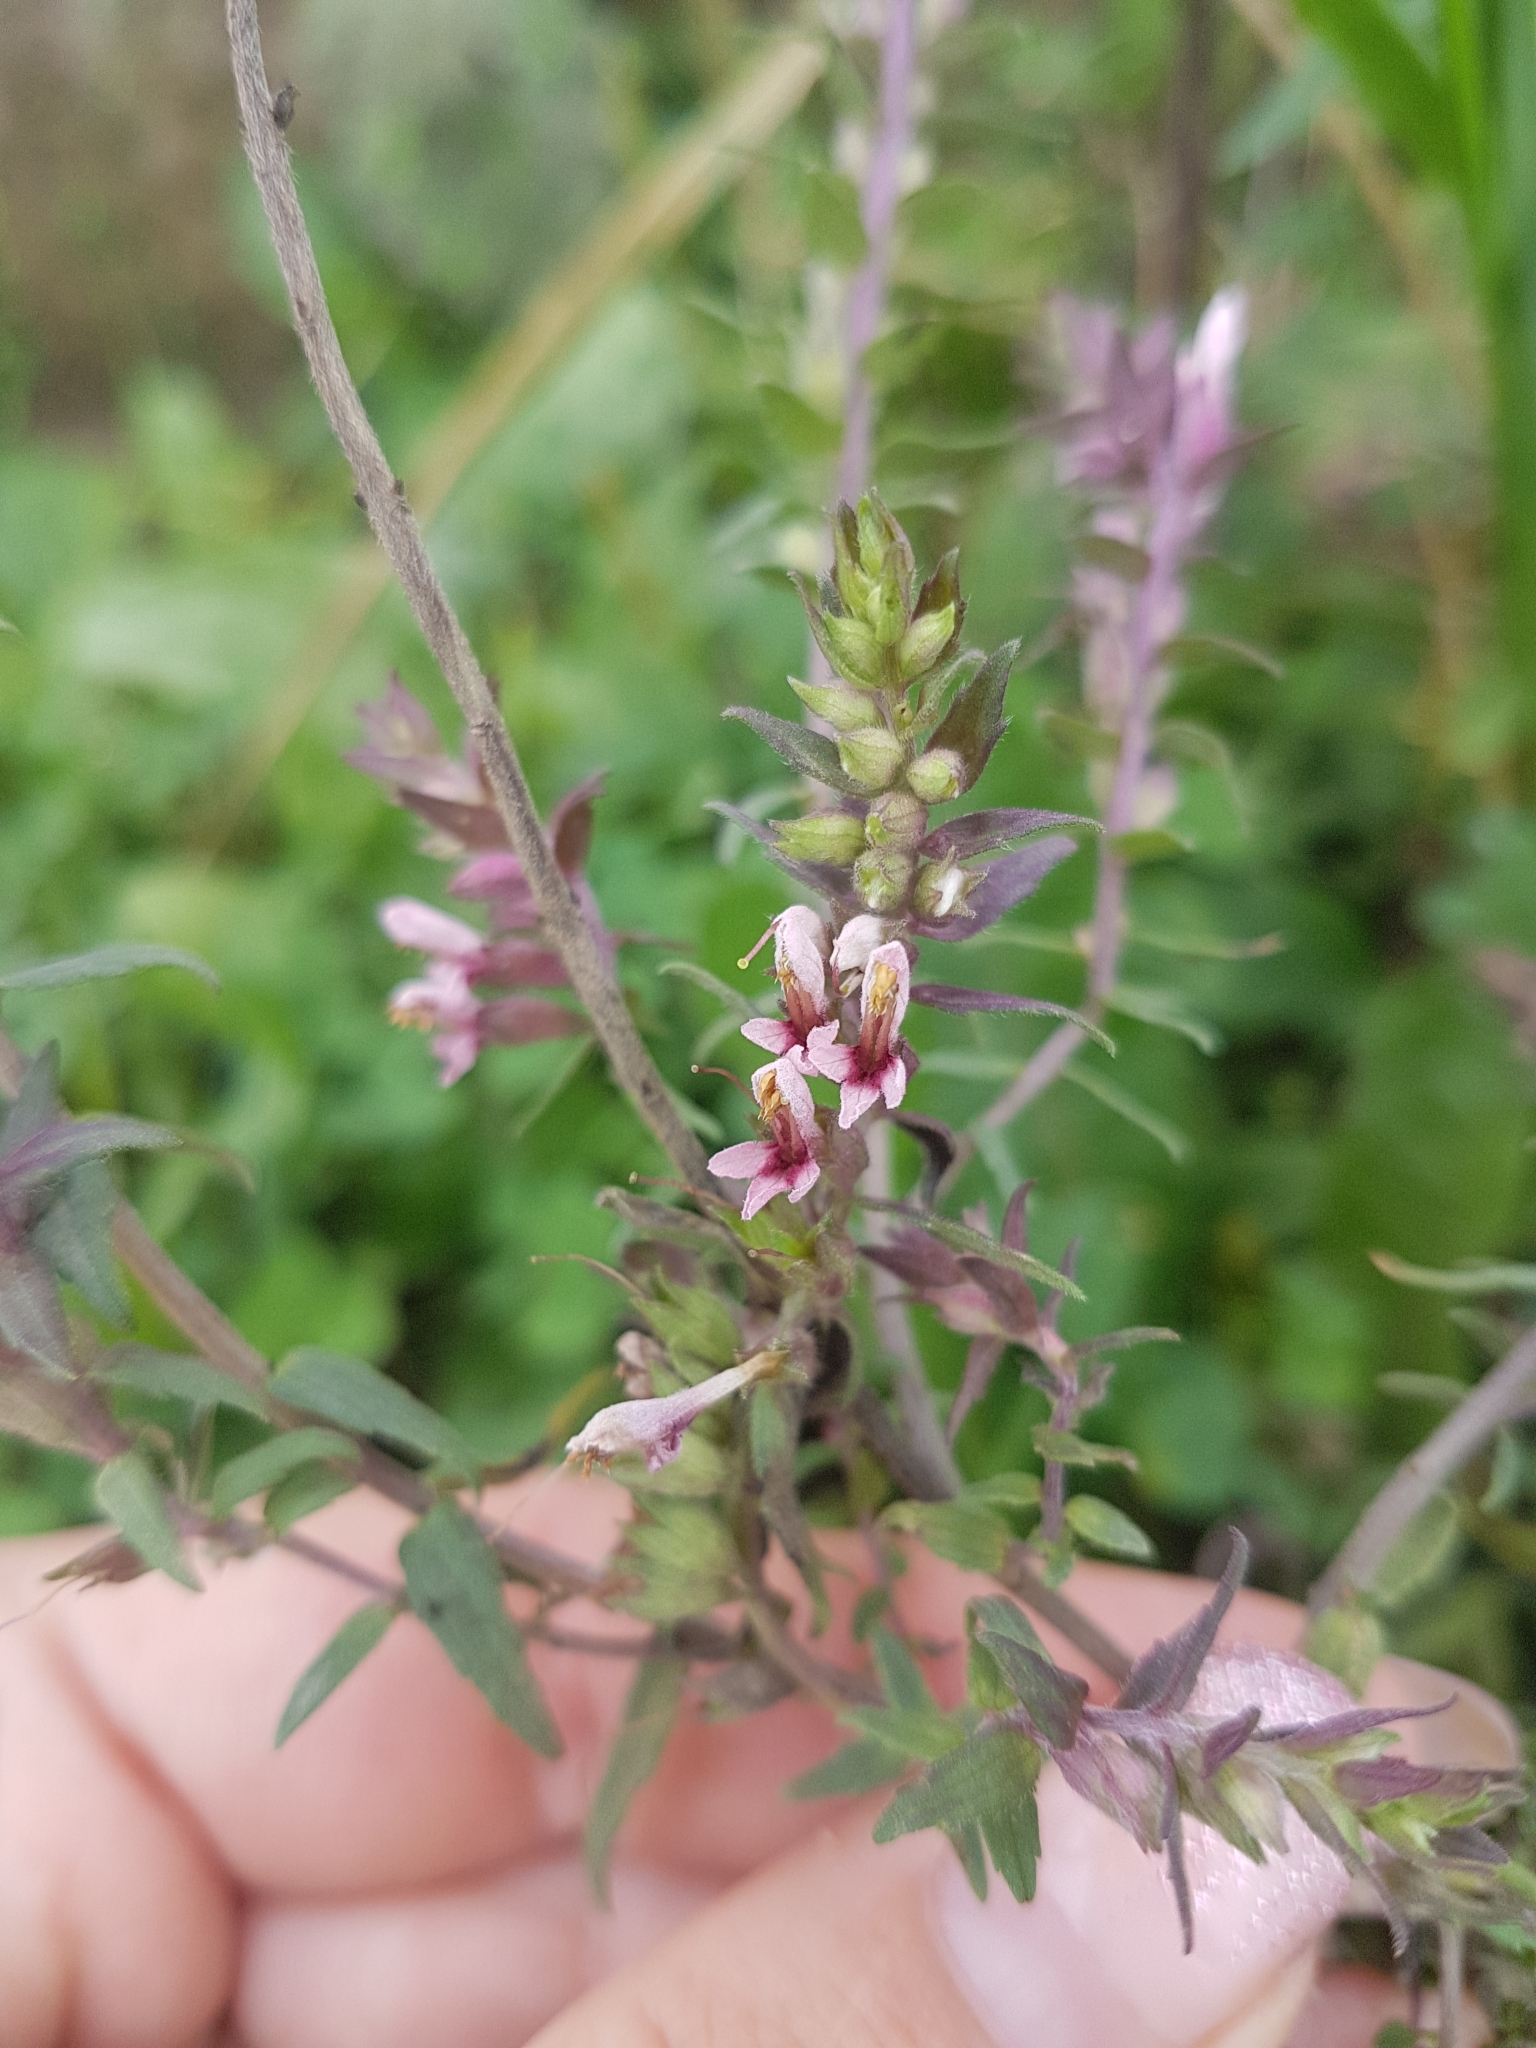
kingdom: Plantae
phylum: Tracheophyta
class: Magnoliopsida
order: Lamiales
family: Orobanchaceae
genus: Odontites
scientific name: Odontites vulgaris
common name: Broomrape
